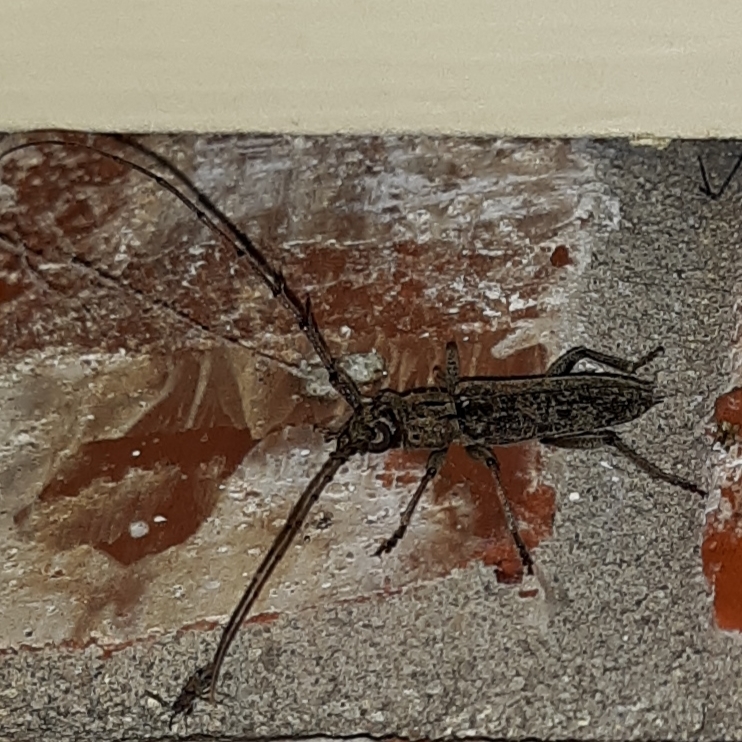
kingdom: Animalia
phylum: Arthropoda
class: Insecta
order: Coleoptera
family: Cerambycidae
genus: Elaphidion
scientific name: Elaphidion mucronatum
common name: Spined oak borer
